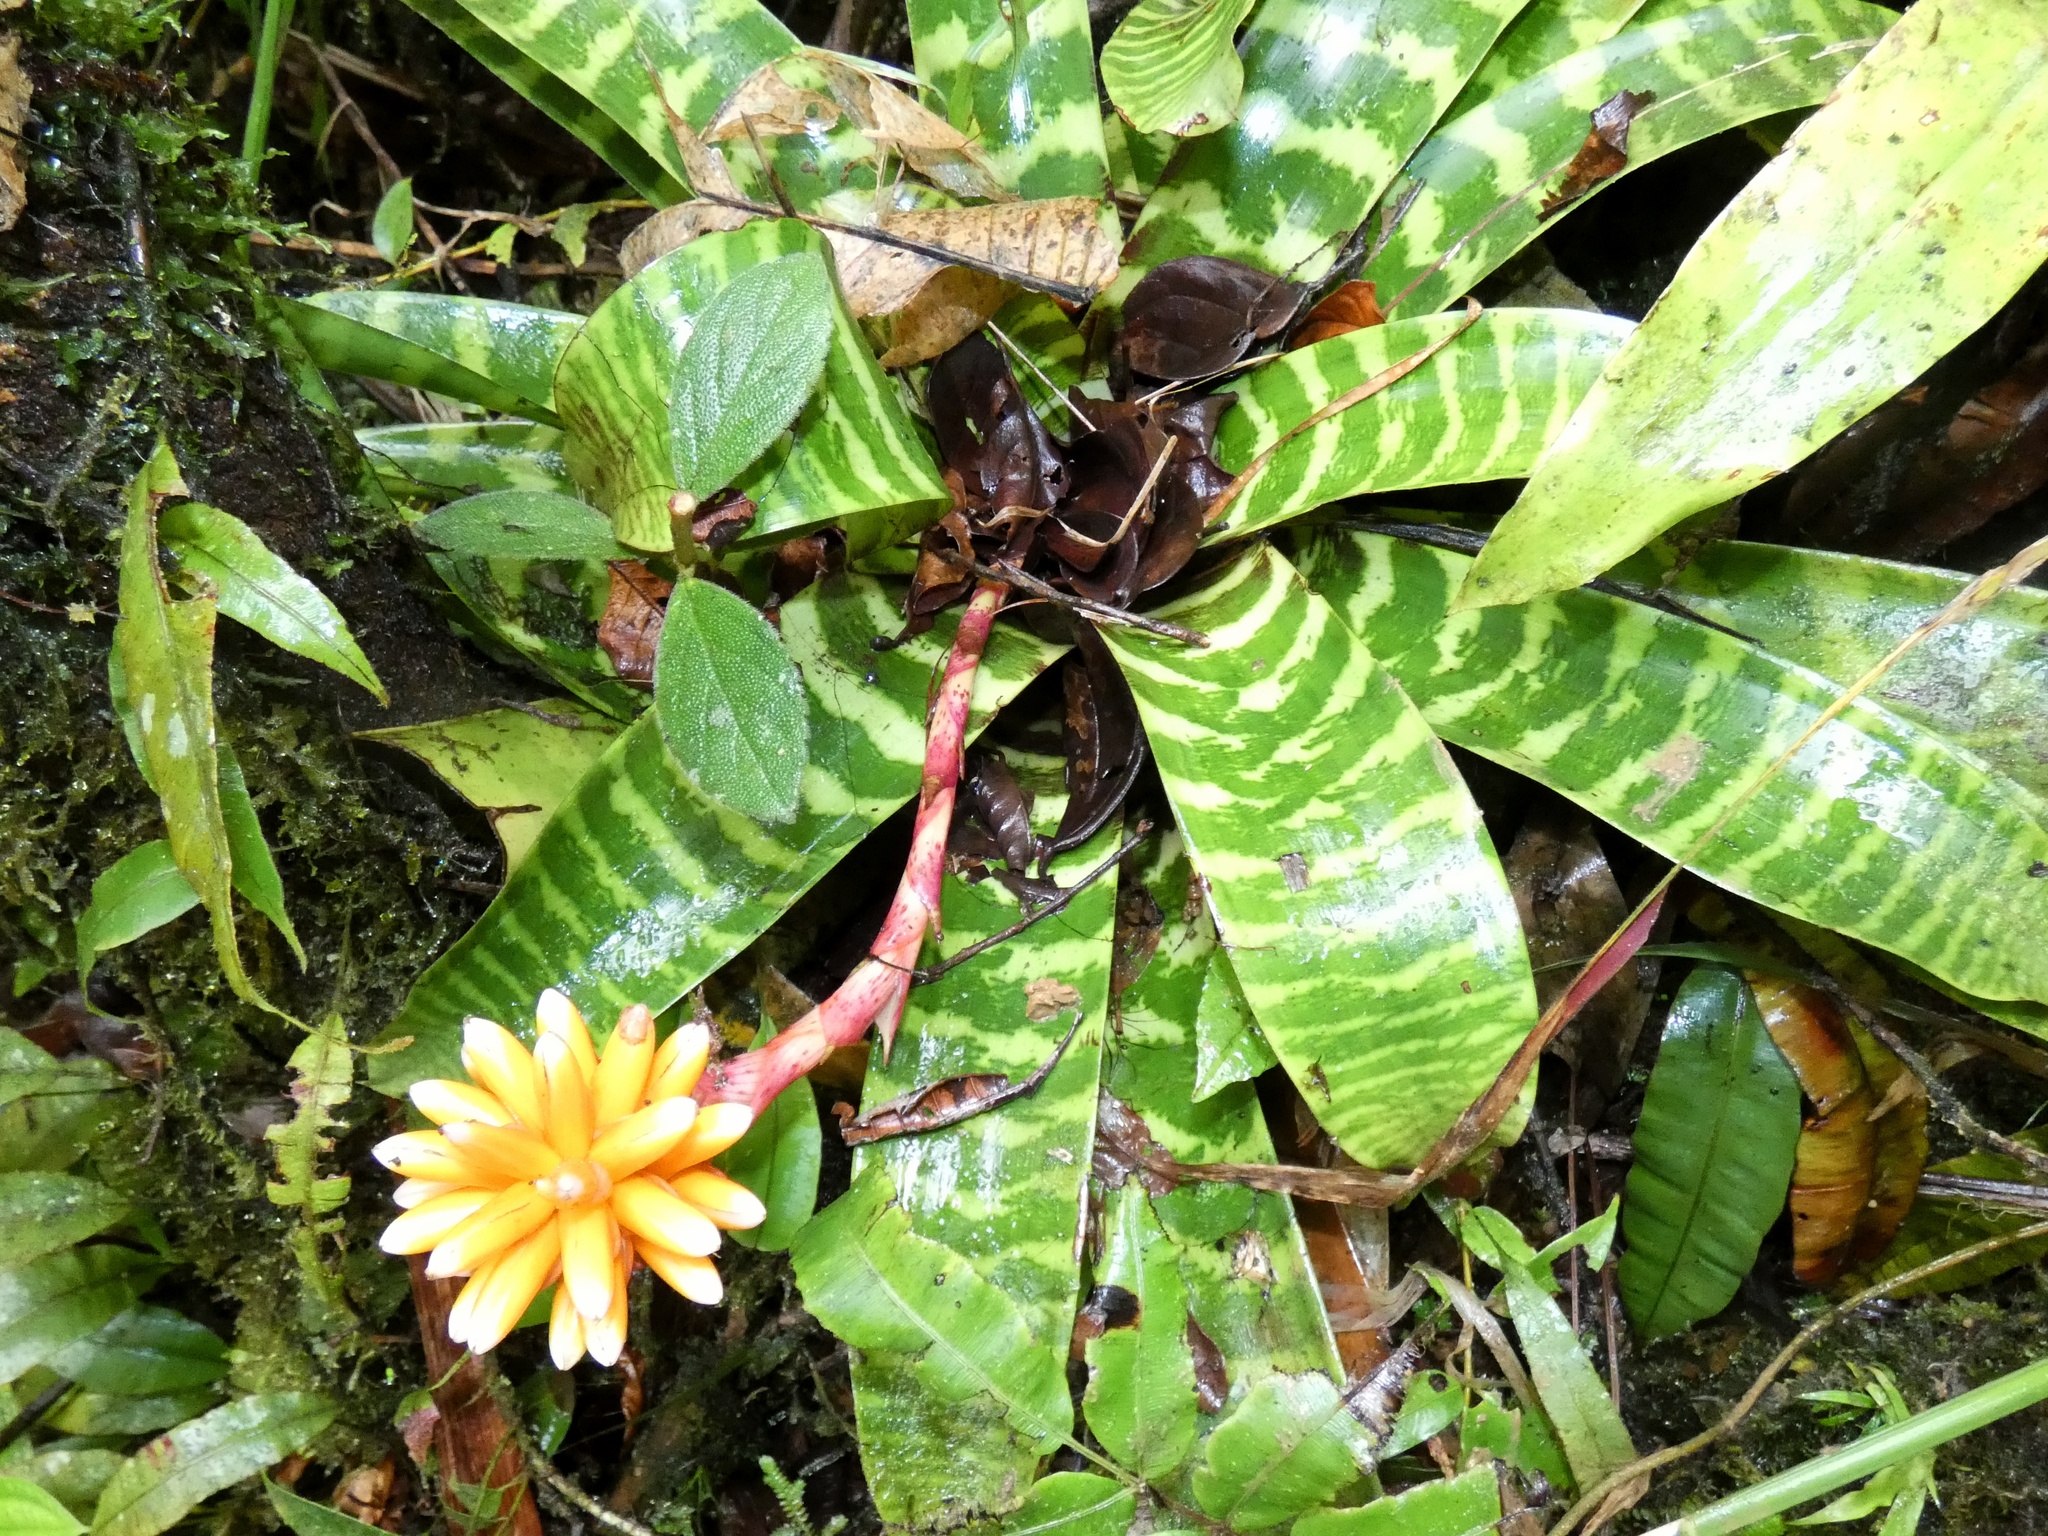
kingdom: Plantae
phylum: Tracheophyta
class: Liliopsida
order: Poales
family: Bromeliaceae
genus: Guzmania
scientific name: Guzmania musaica
